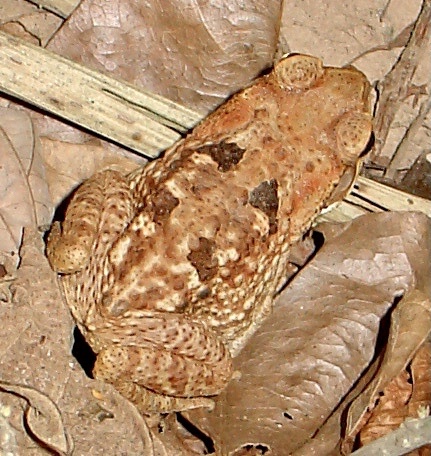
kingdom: Animalia
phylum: Chordata
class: Amphibia
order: Anura
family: Bufonidae
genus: Rhinella
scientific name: Rhinella marina
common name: Cane toad
